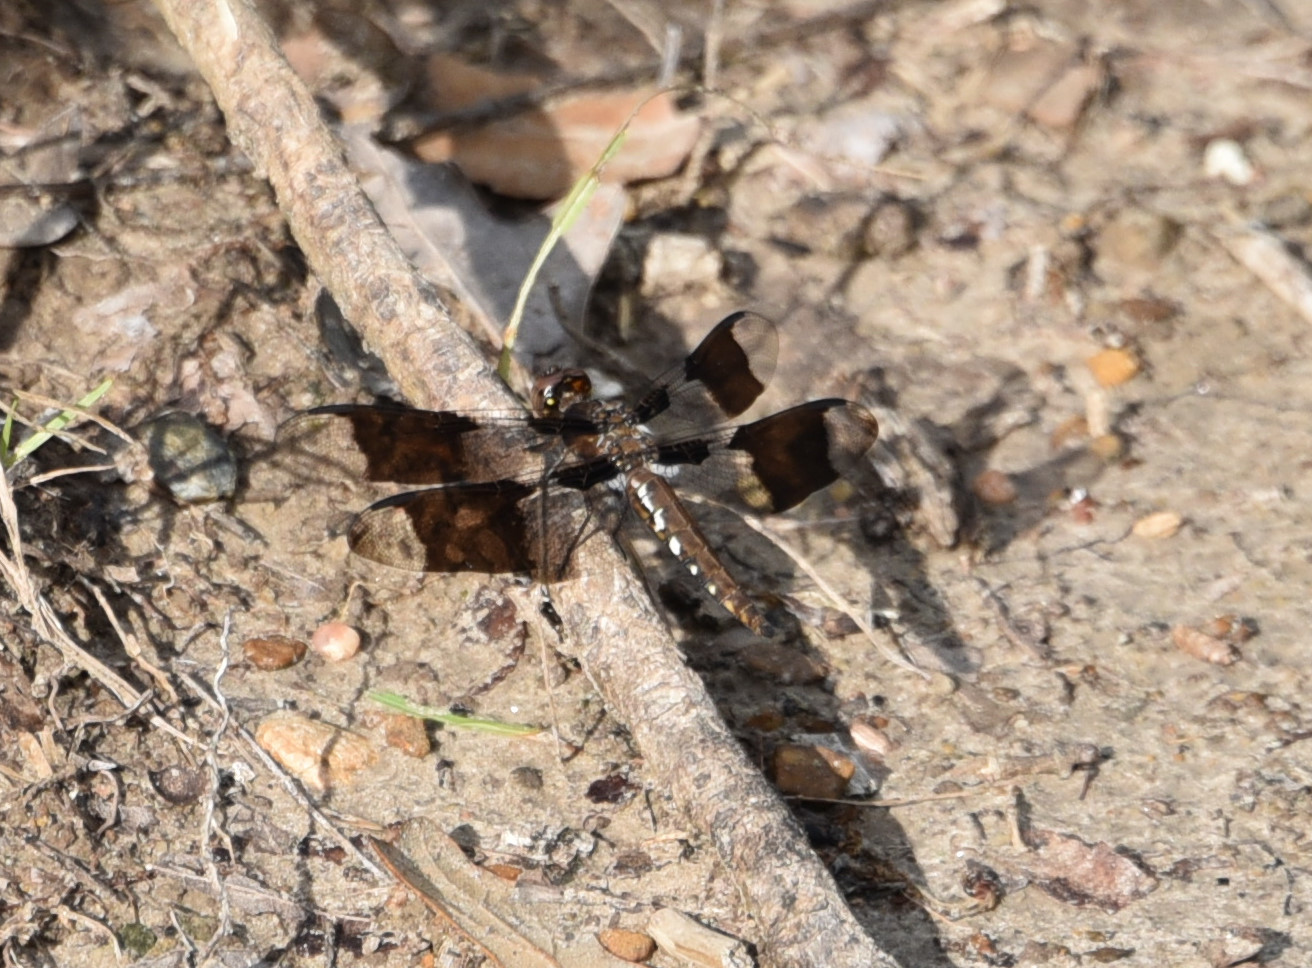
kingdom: Animalia
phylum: Arthropoda
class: Insecta
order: Odonata
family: Libellulidae
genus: Plathemis
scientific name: Plathemis lydia
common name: Common whitetail
